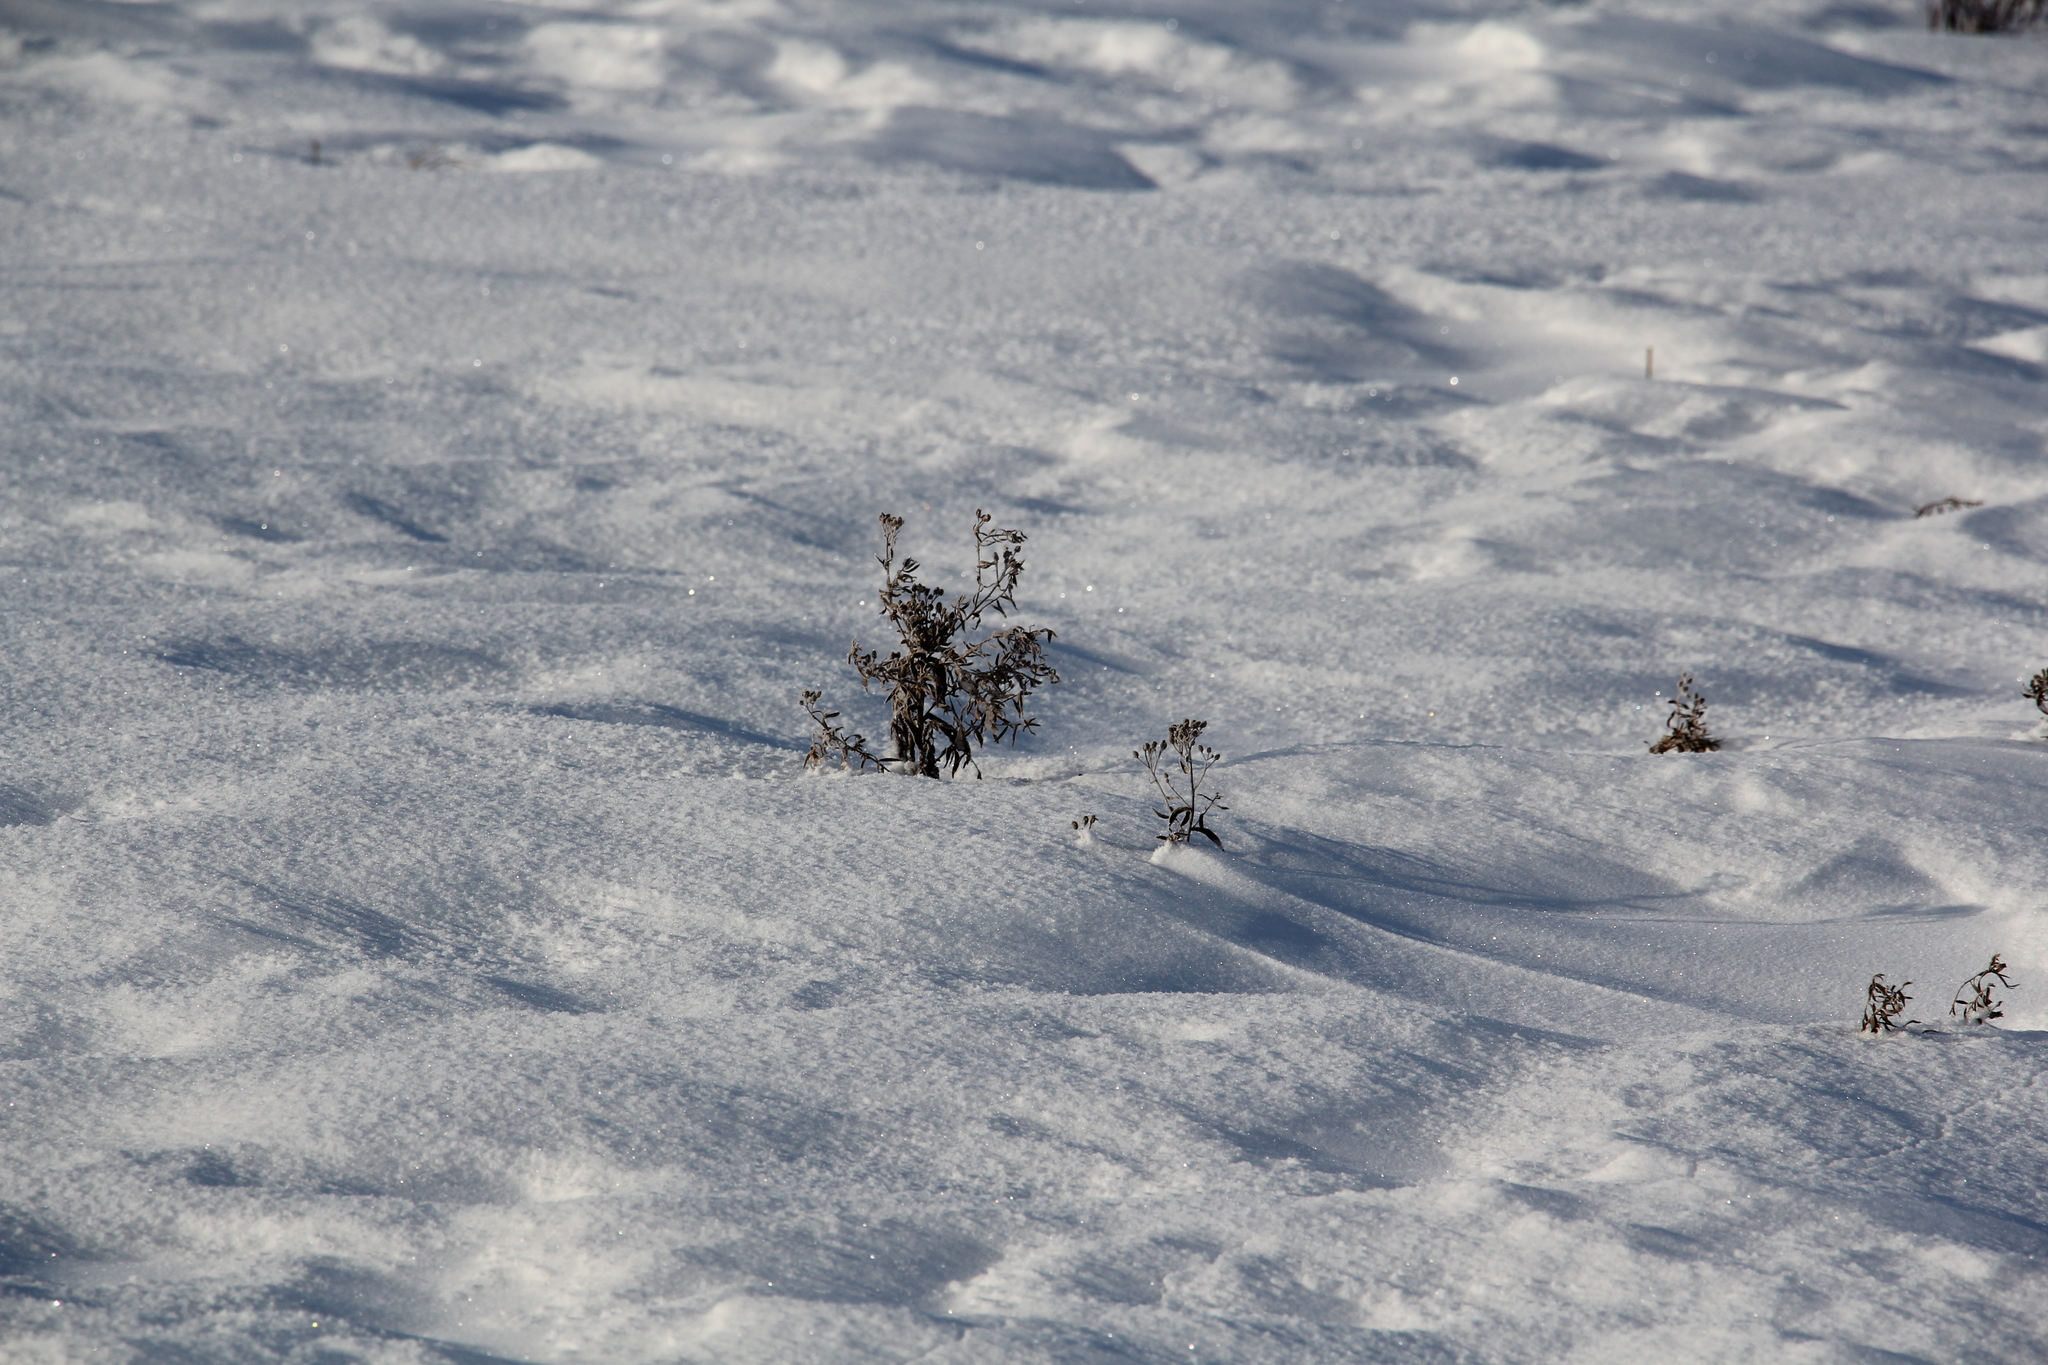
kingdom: Plantae
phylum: Tracheophyta
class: Magnoliopsida
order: Asterales
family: Asteraceae
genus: Achillea
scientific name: Achillea salicifolia
